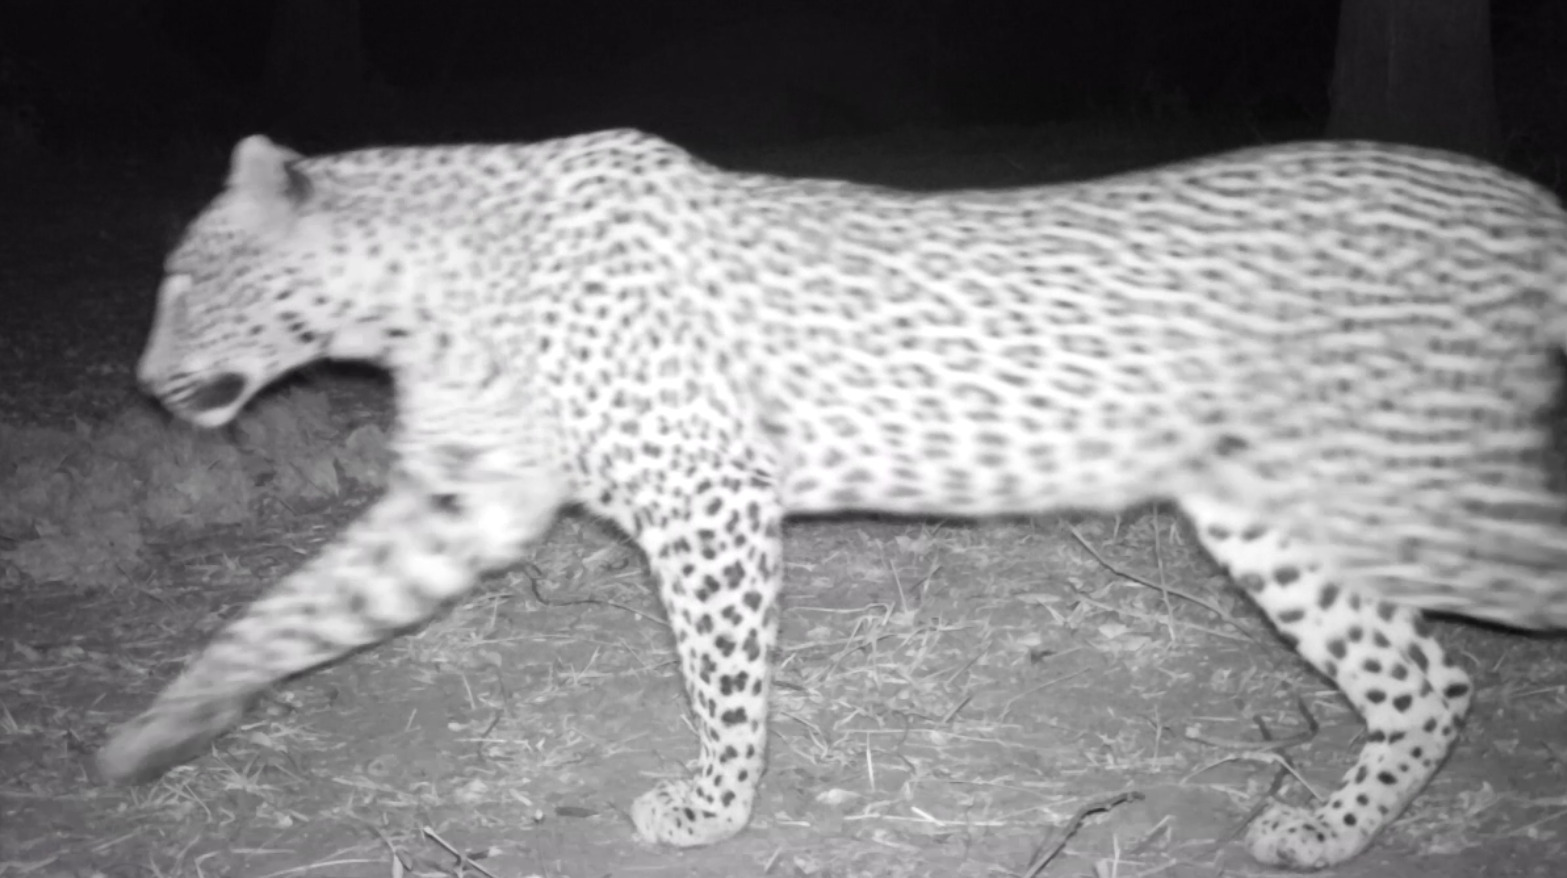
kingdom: Animalia
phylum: Chordata
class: Mammalia
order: Carnivora
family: Felidae
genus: Panthera
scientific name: Panthera pardus
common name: Leopard
